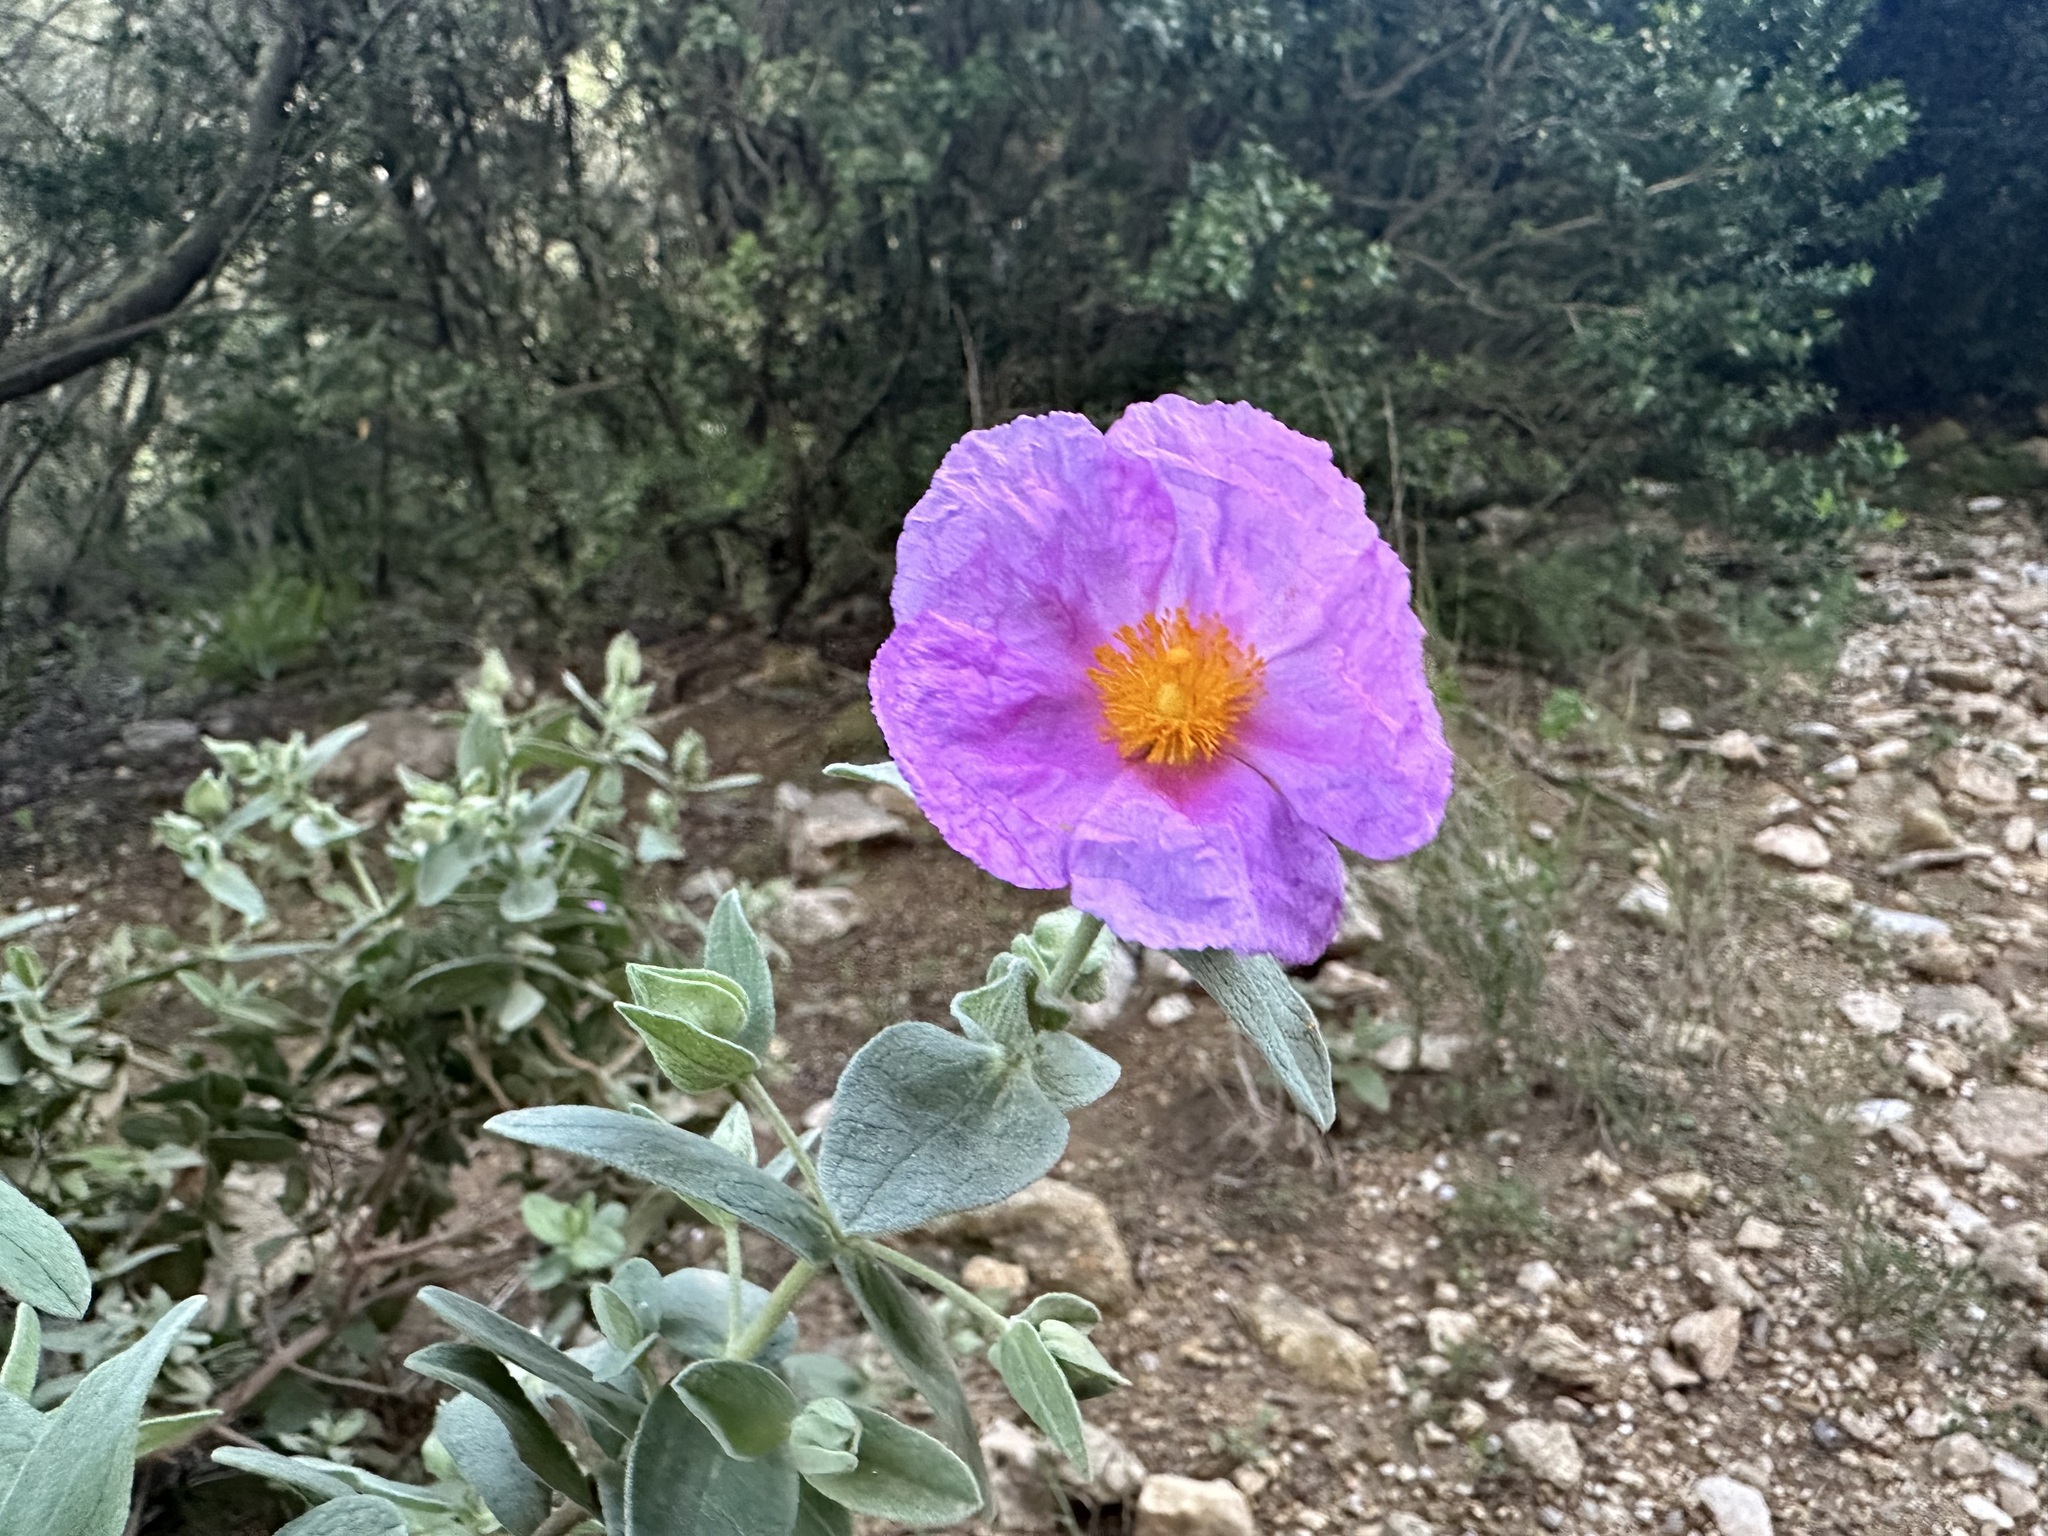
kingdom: Plantae
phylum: Tracheophyta
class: Magnoliopsida
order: Malvales
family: Cistaceae
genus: Cistus
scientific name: Cistus albidus
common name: White-leaf rock-rose
